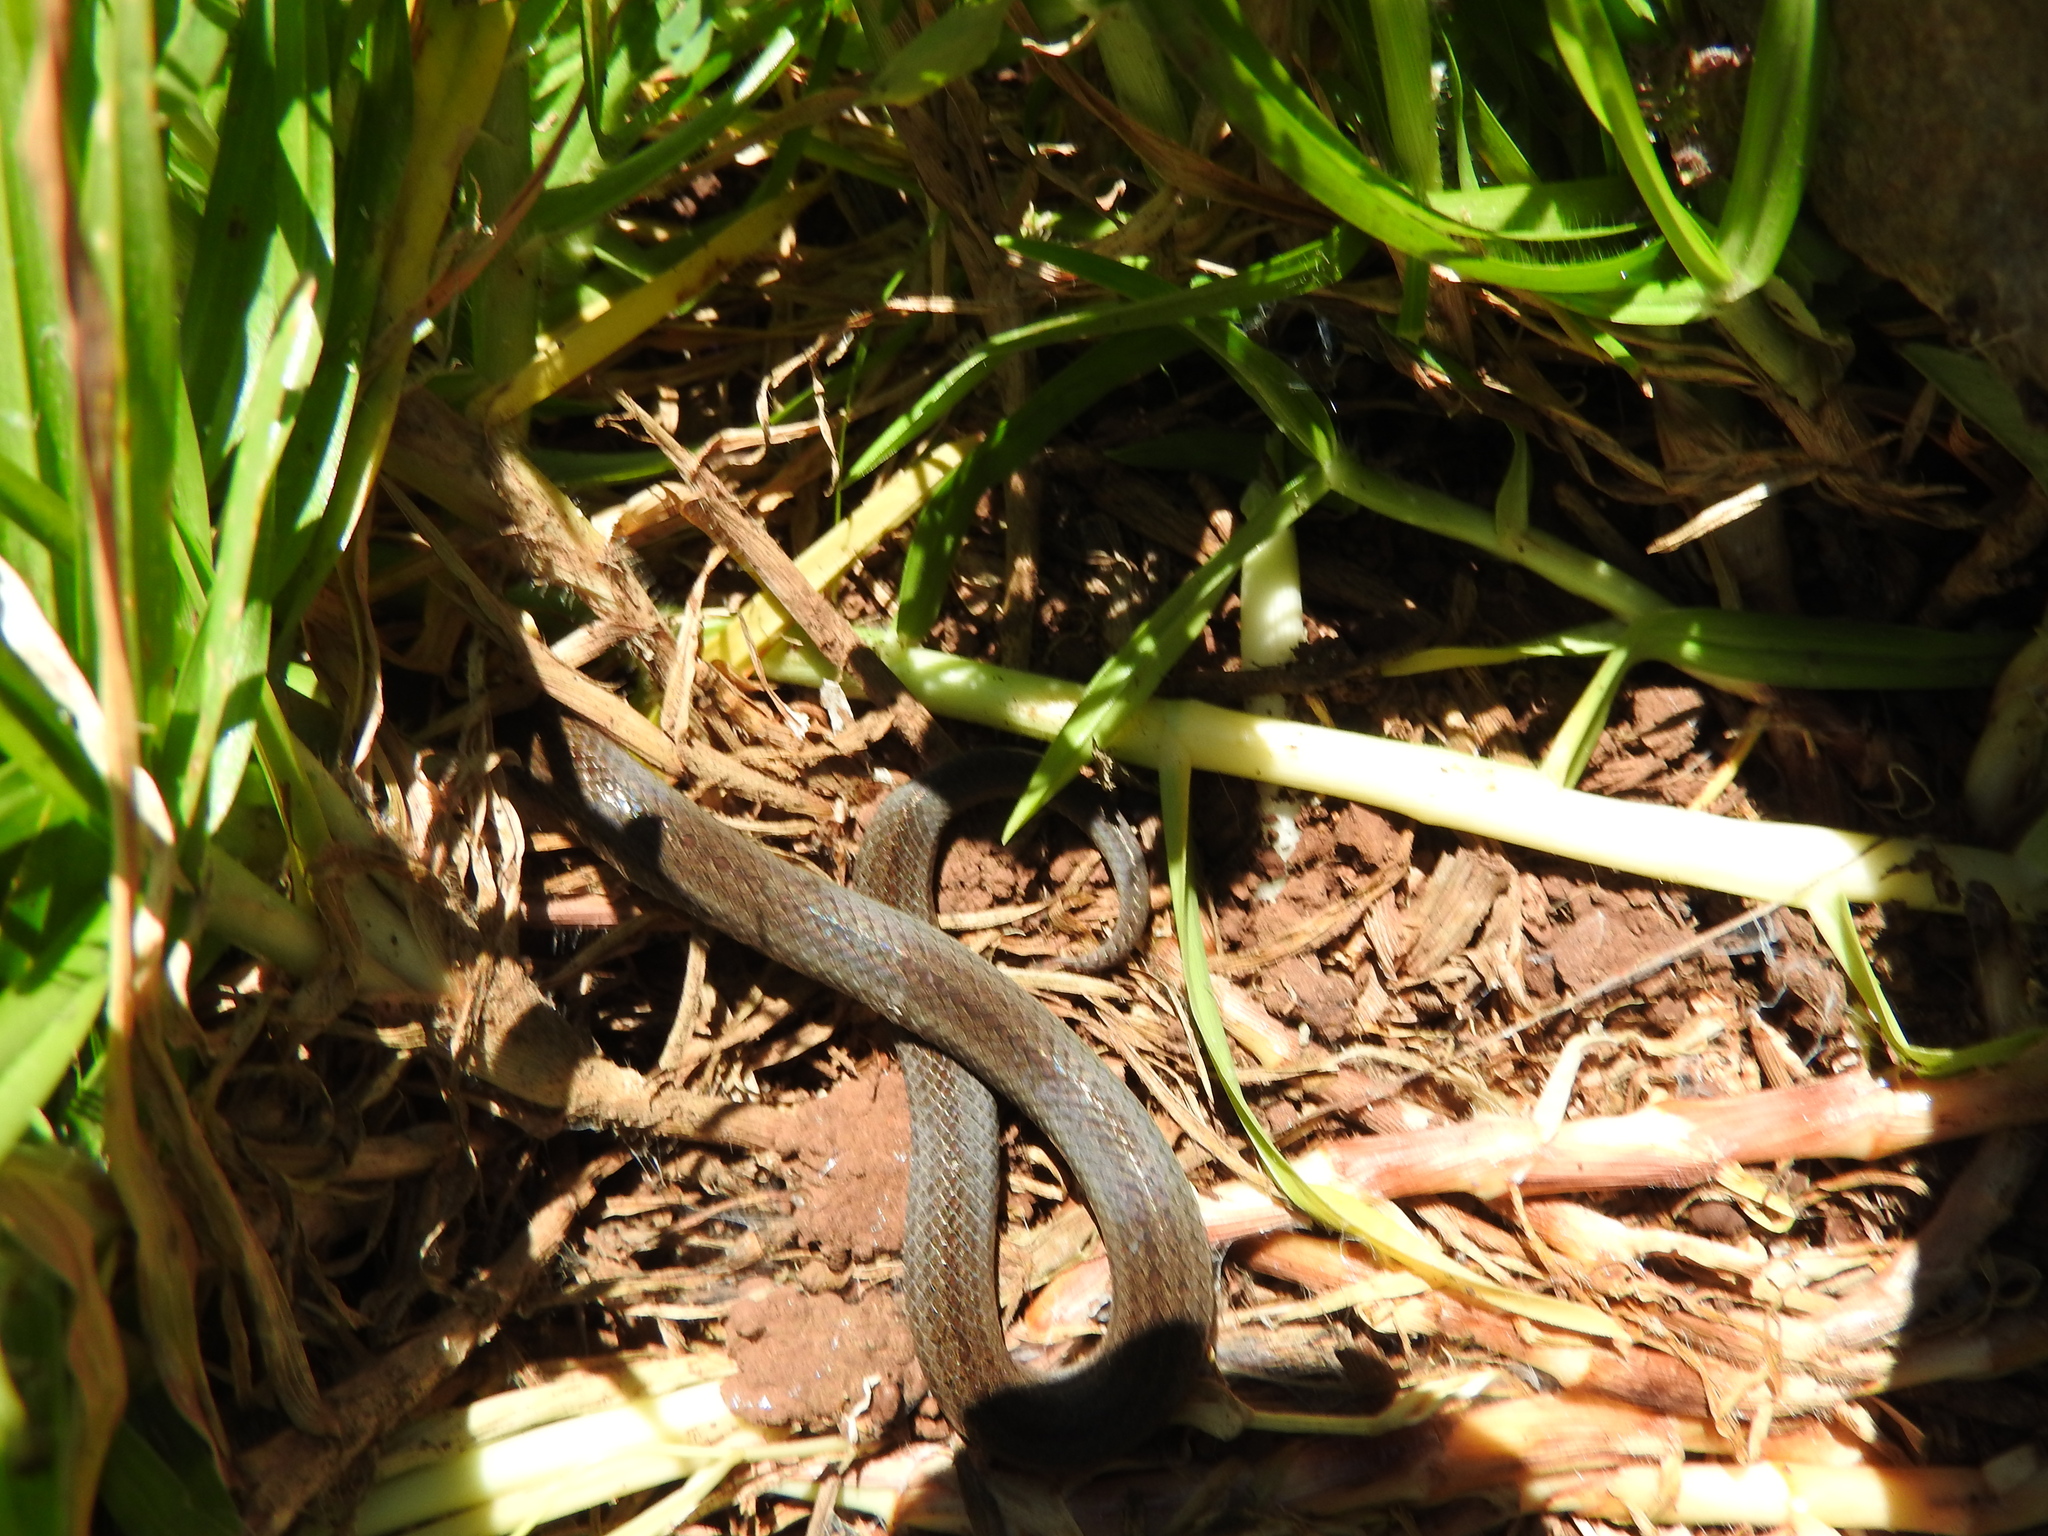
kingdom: Animalia
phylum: Chordata
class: Squamata
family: Colubridae
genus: Conopsis
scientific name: Conopsis lineata
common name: Lined tolucan earthsnake
